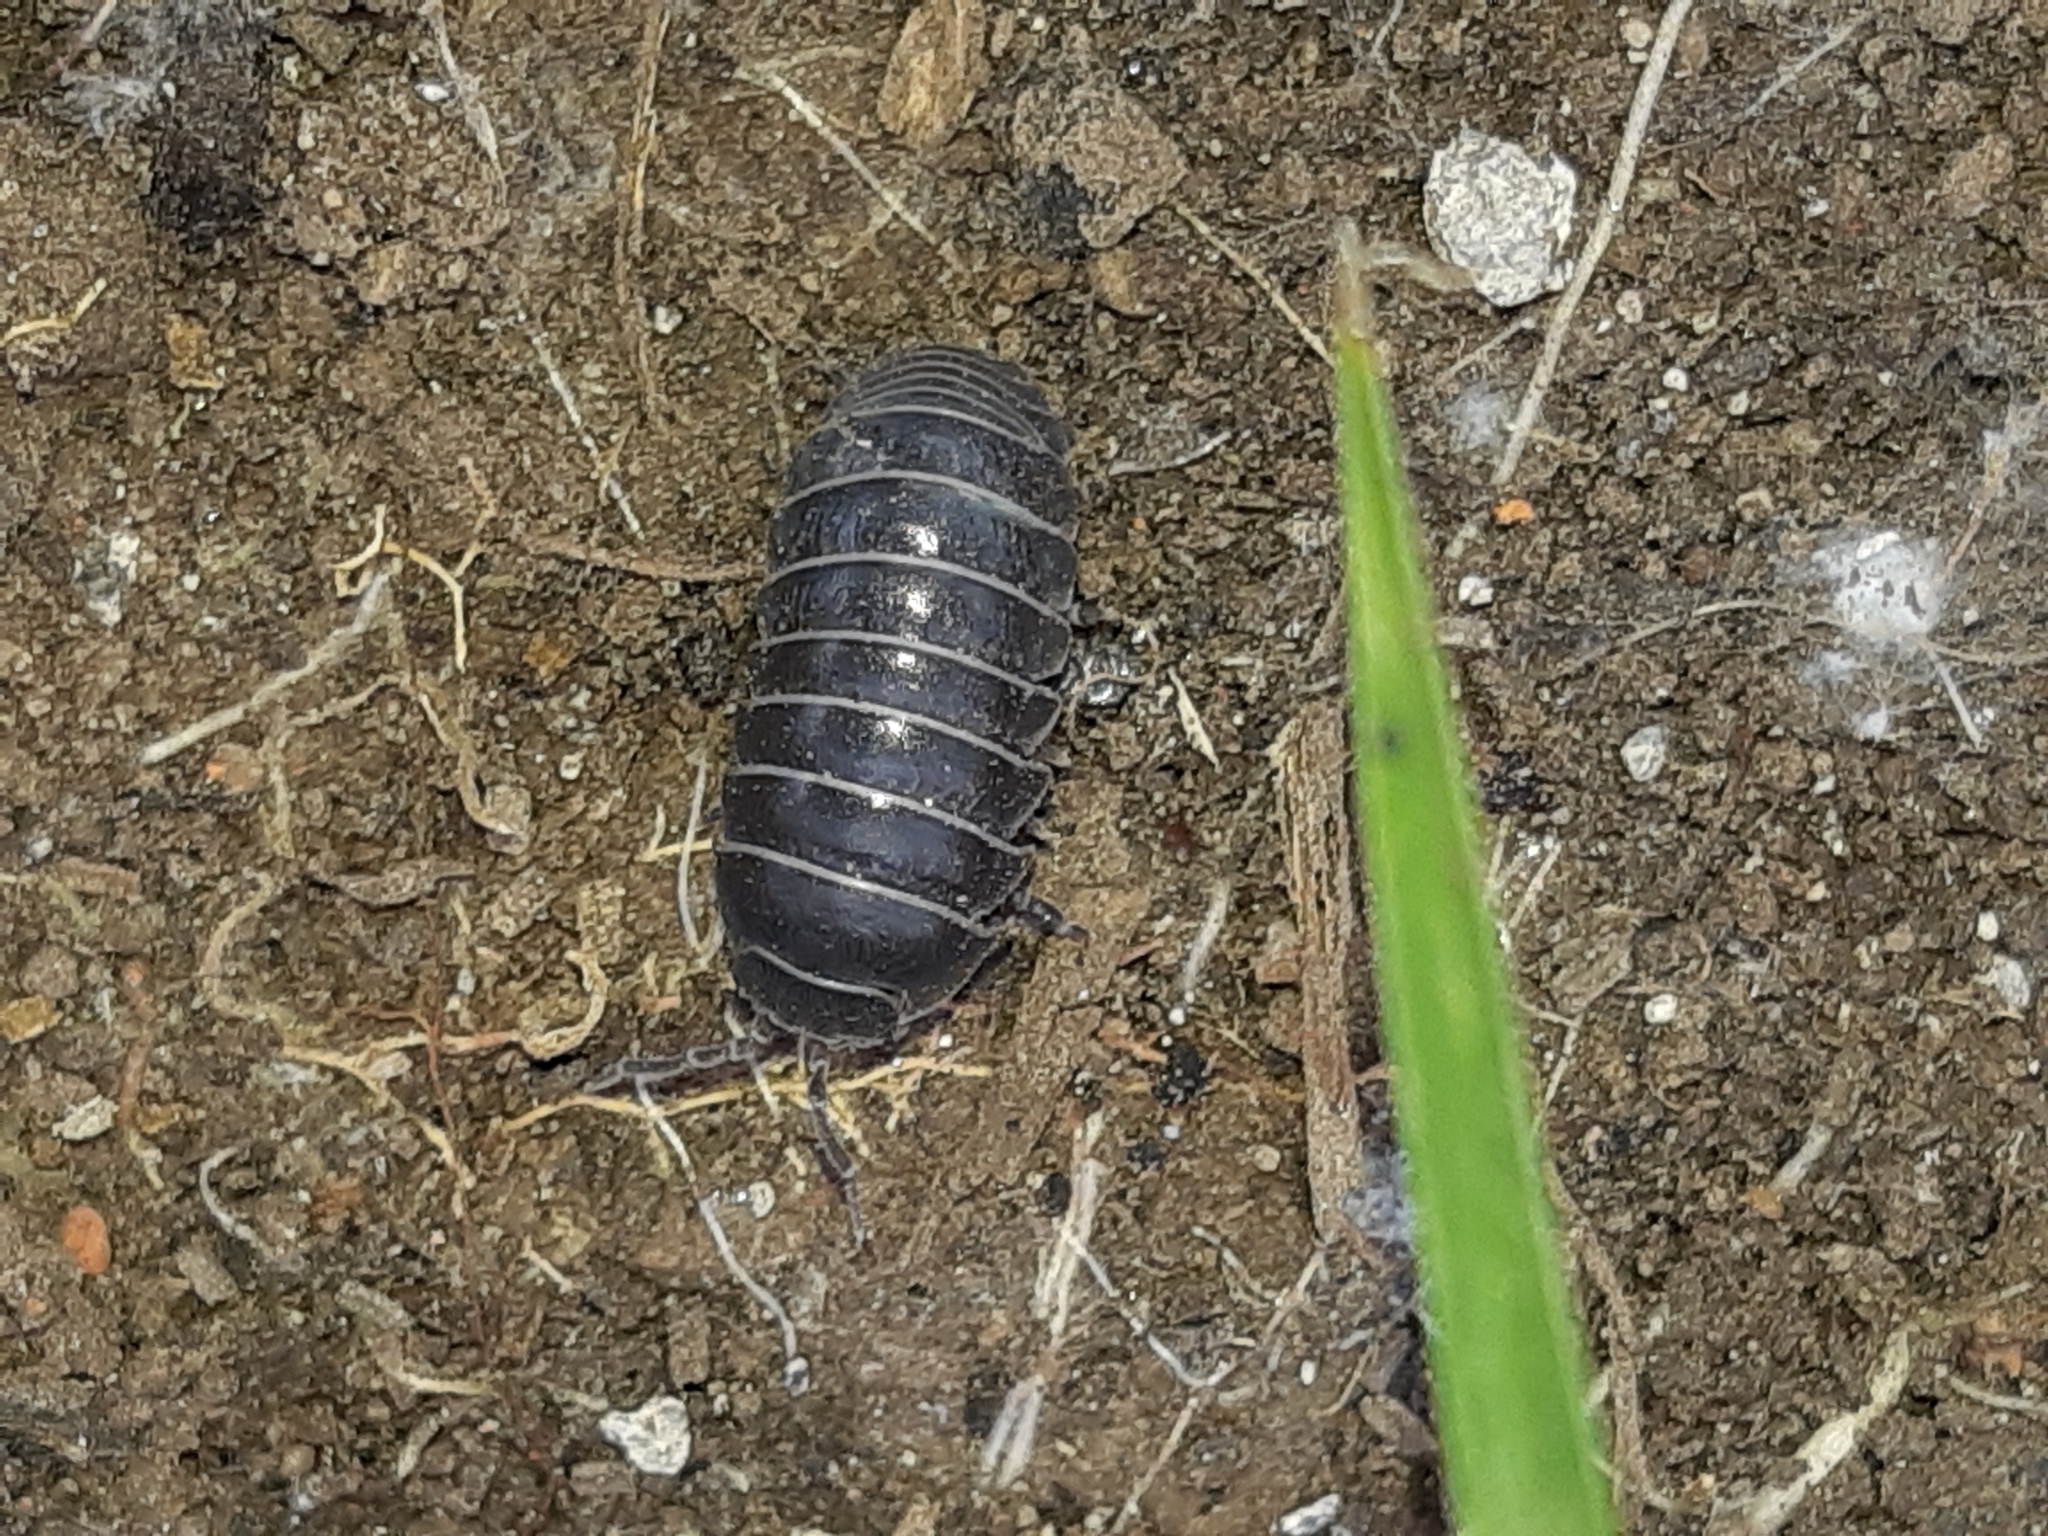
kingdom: Animalia
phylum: Arthropoda
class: Malacostraca
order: Isopoda
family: Armadillidiidae
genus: Armadillidium
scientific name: Armadillidium vulgare
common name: Common pill woodlouse
